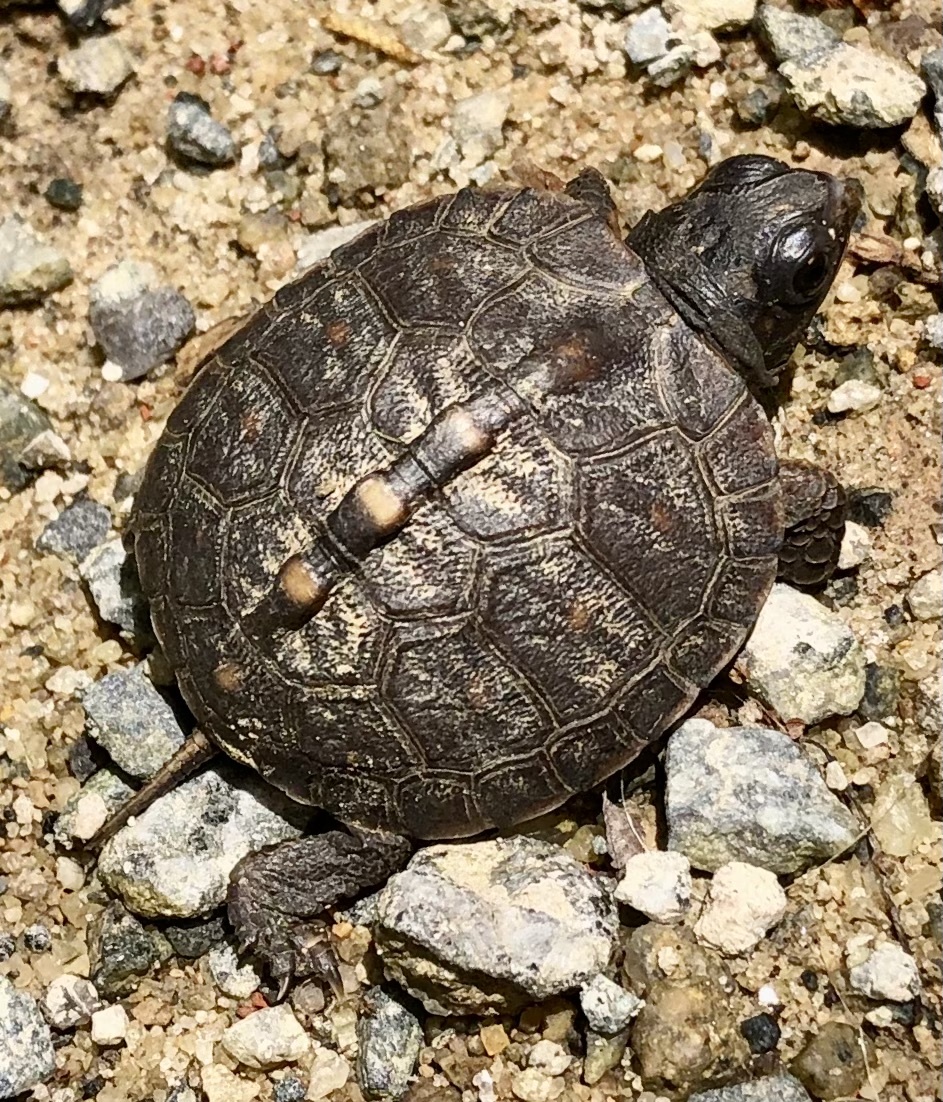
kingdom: Animalia
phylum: Chordata
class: Testudines
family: Emydidae
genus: Terrapene
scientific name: Terrapene carolina
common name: Common box turtle
